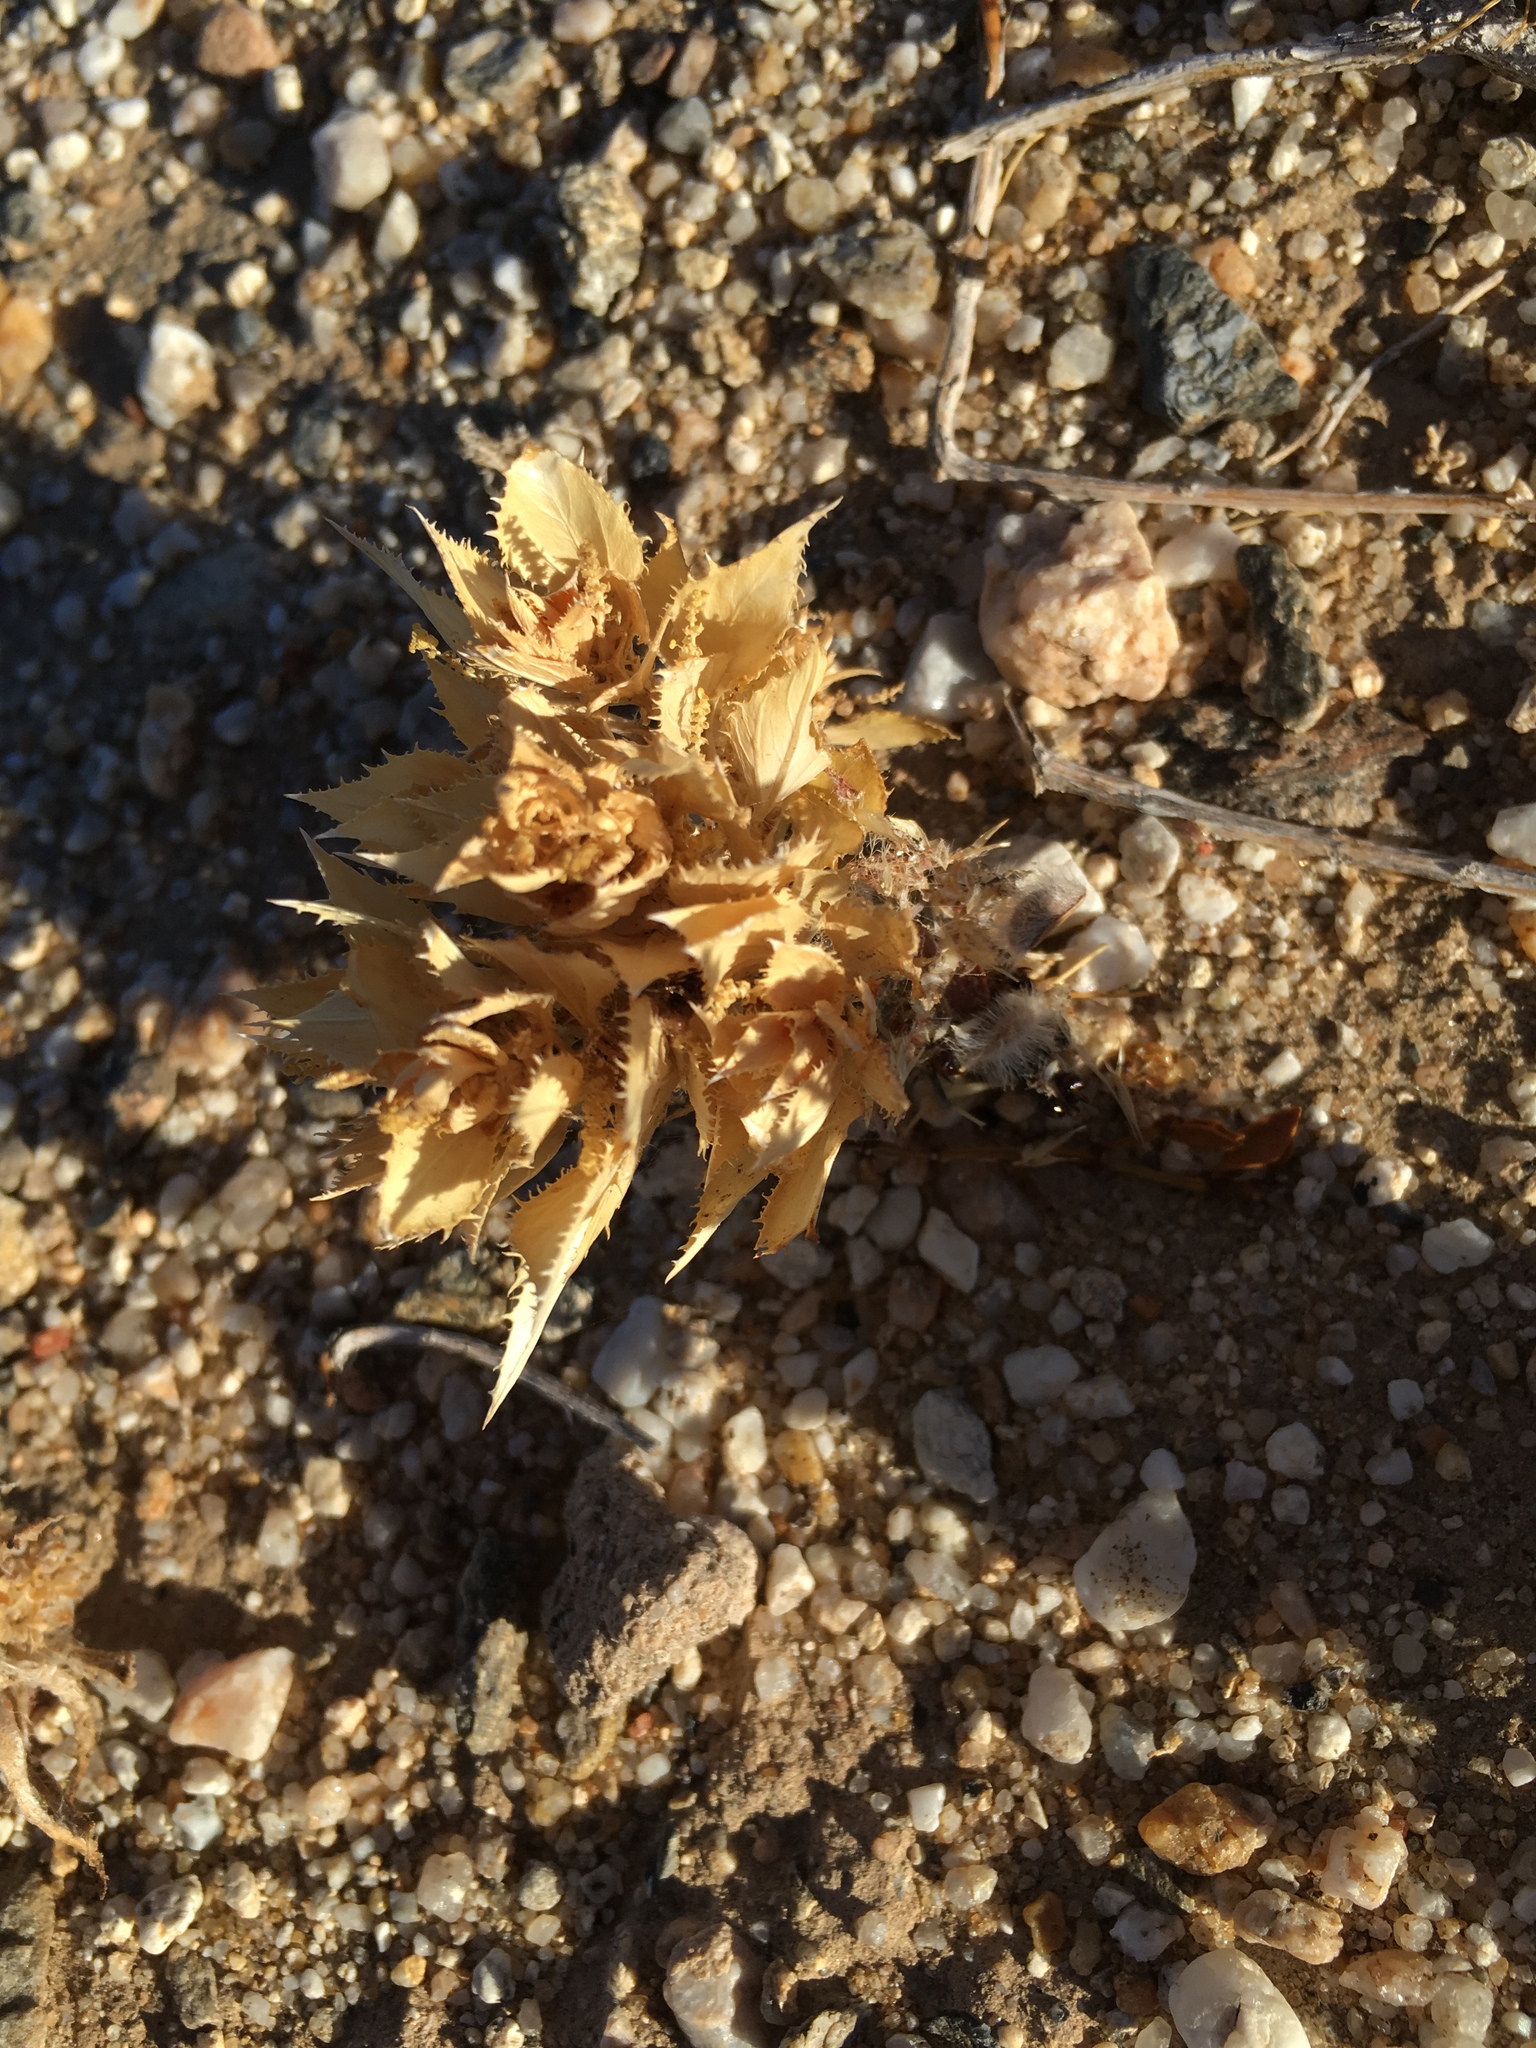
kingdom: Plantae
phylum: Tracheophyta
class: Magnoliopsida
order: Malpighiales
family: Euphorbiaceae
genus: Stillingia
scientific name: Stillingia spinulosa
